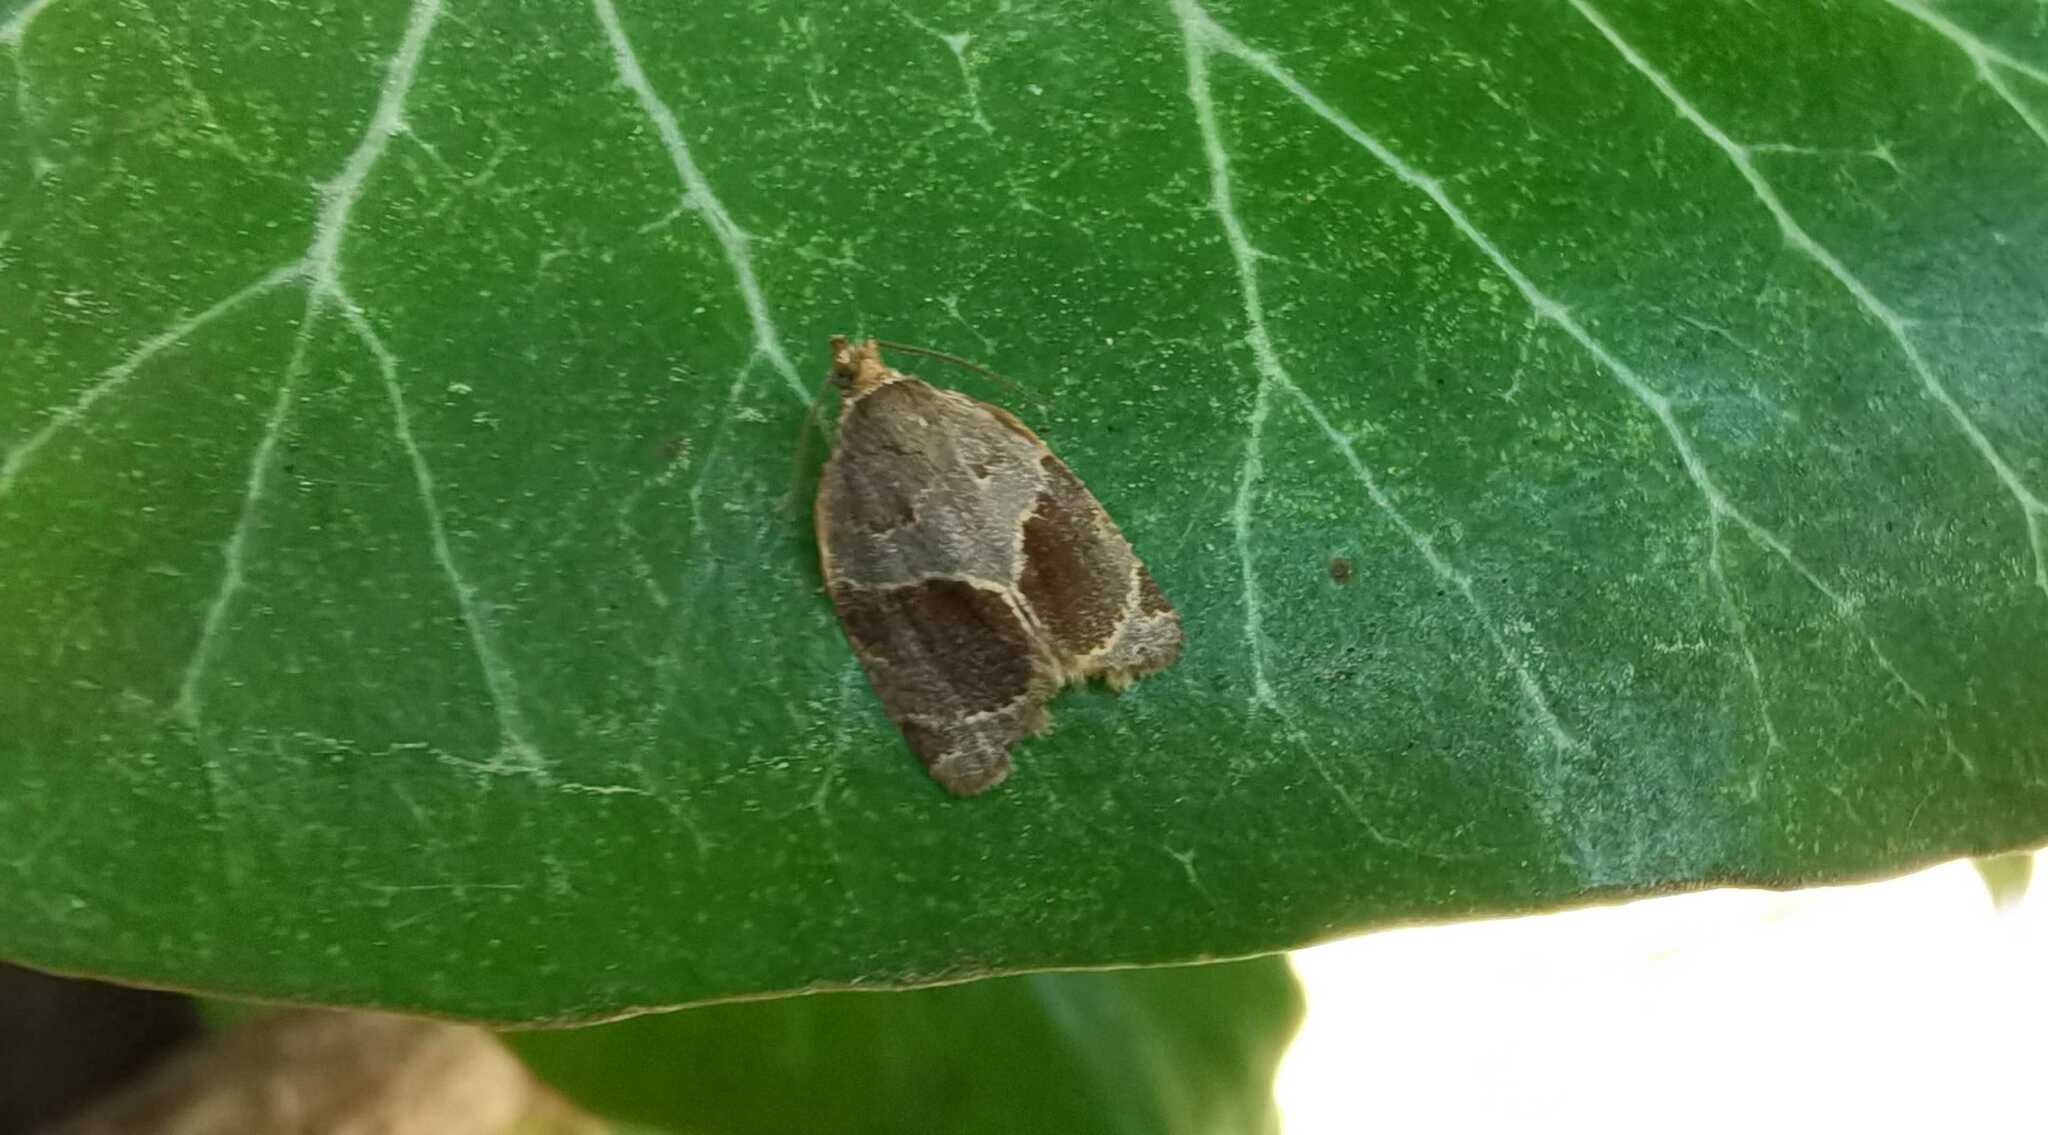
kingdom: Animalia
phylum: Arthropoda
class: Insecta
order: Lepidoptera
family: Tortricidae
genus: Clepsis
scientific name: Clepsis dumicolana
